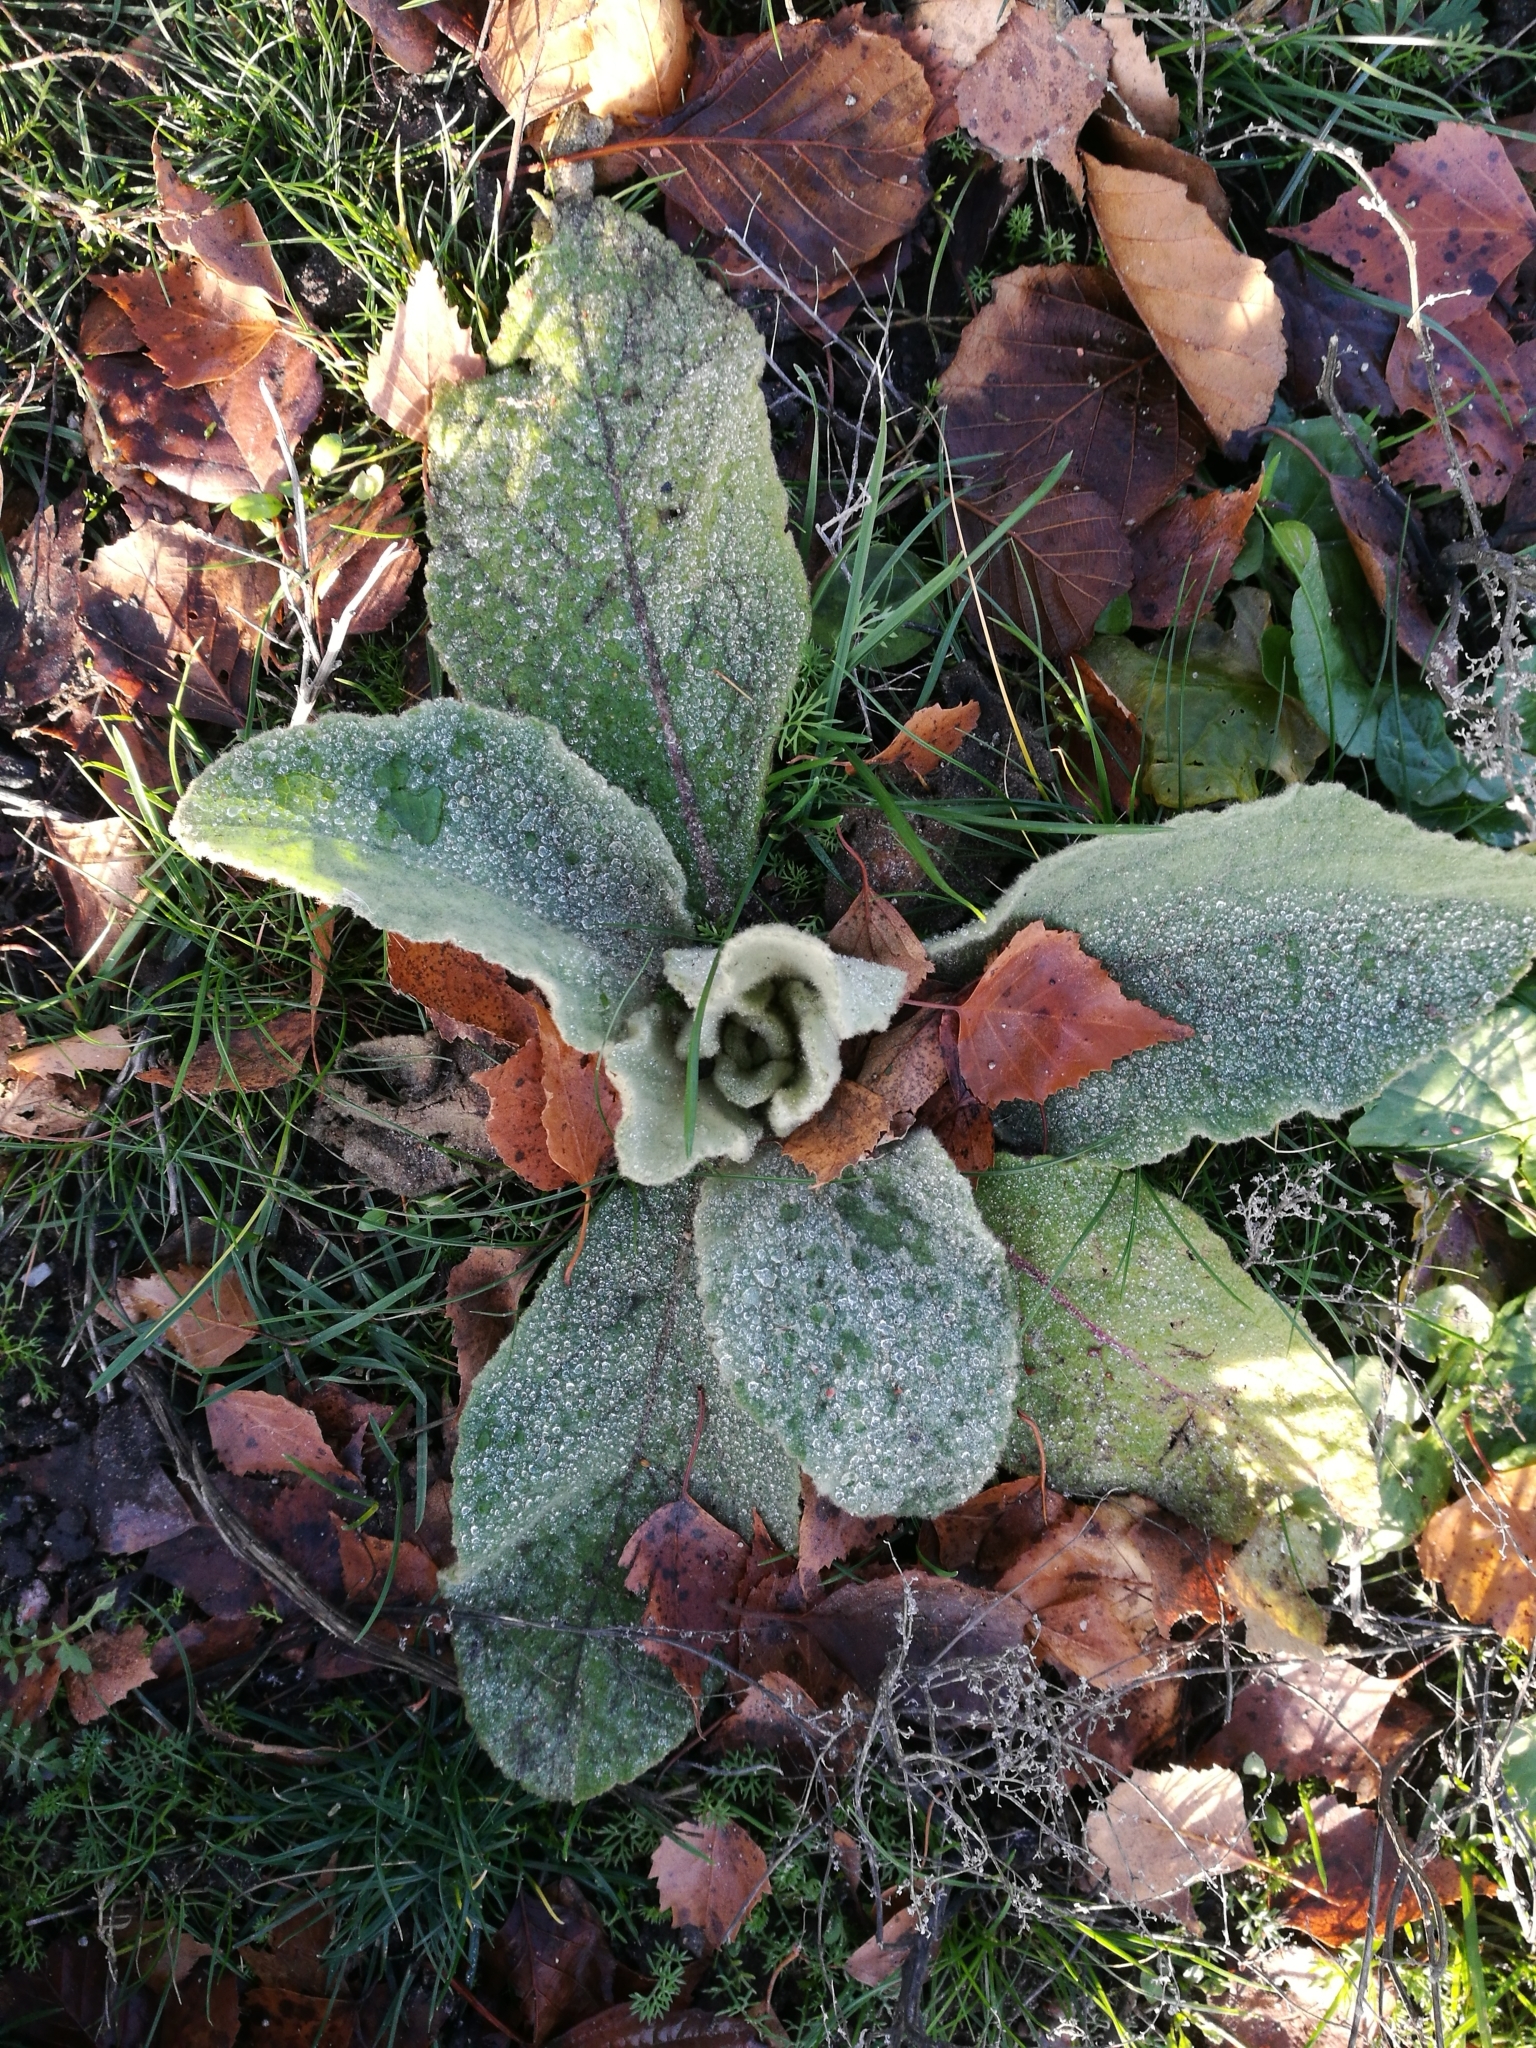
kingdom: Plantae
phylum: Tracheophyta
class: Magnoliopsida
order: Lamiales
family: Scrophulariaceae
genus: Verbascum
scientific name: Verbascum thapsus
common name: Common mullein
